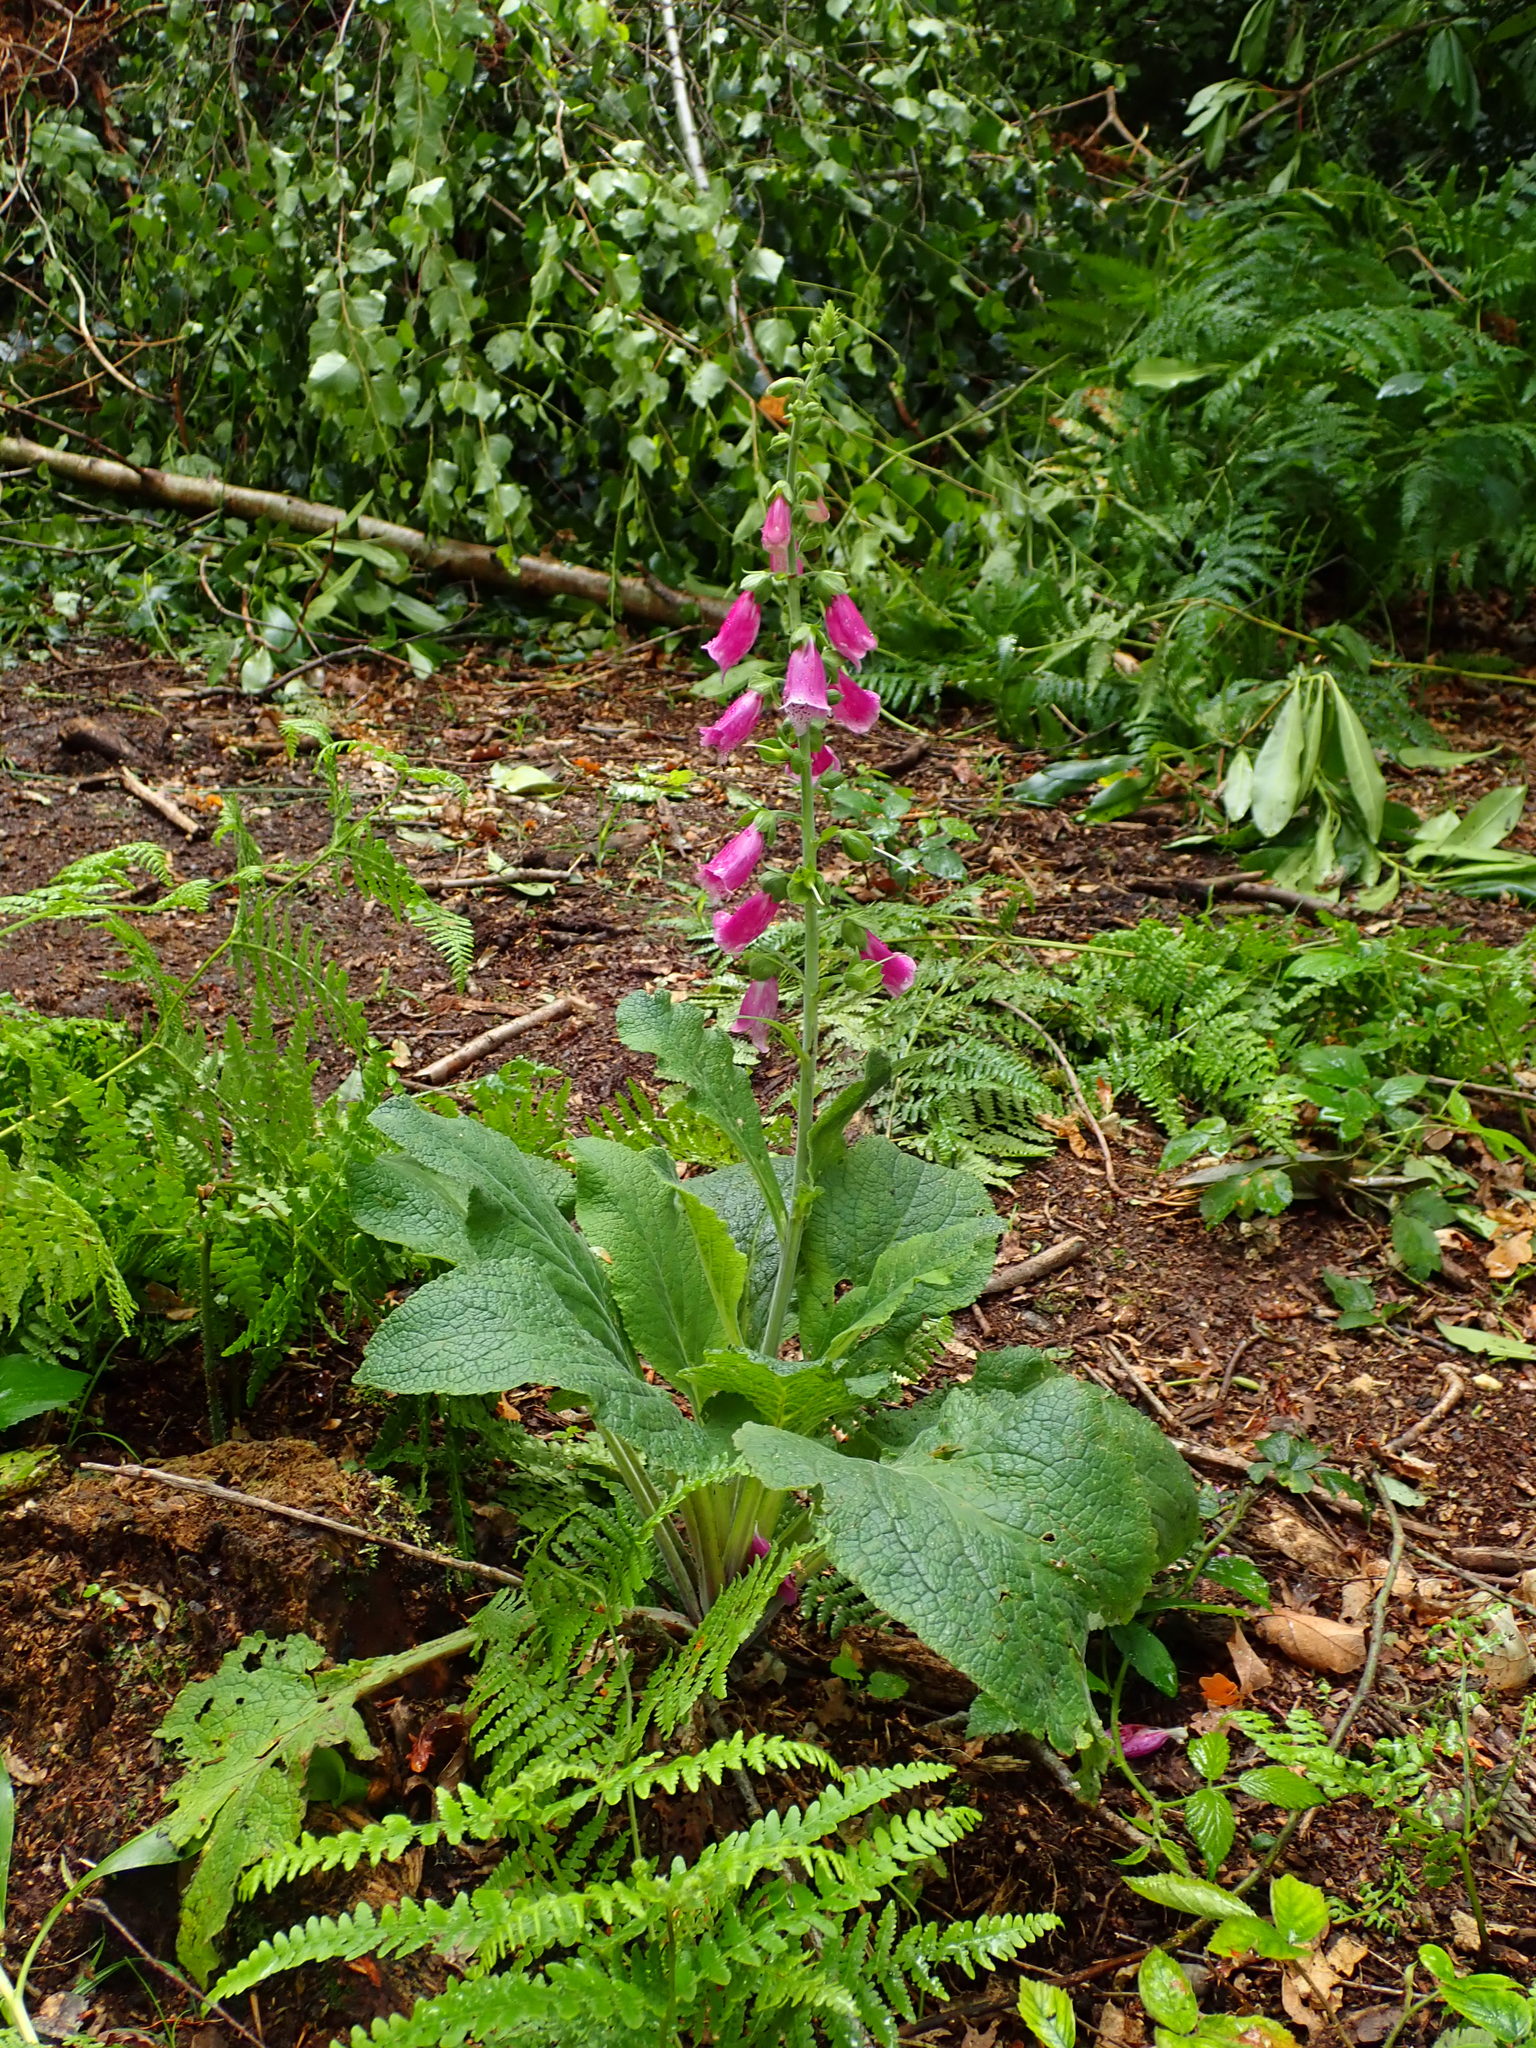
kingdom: Plantae
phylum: Tracheophyta
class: Magnoliopsida
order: Lamiales
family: Plantaginaceae
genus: Digitalis
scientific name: Digitalis purpurea
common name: Foxglove
